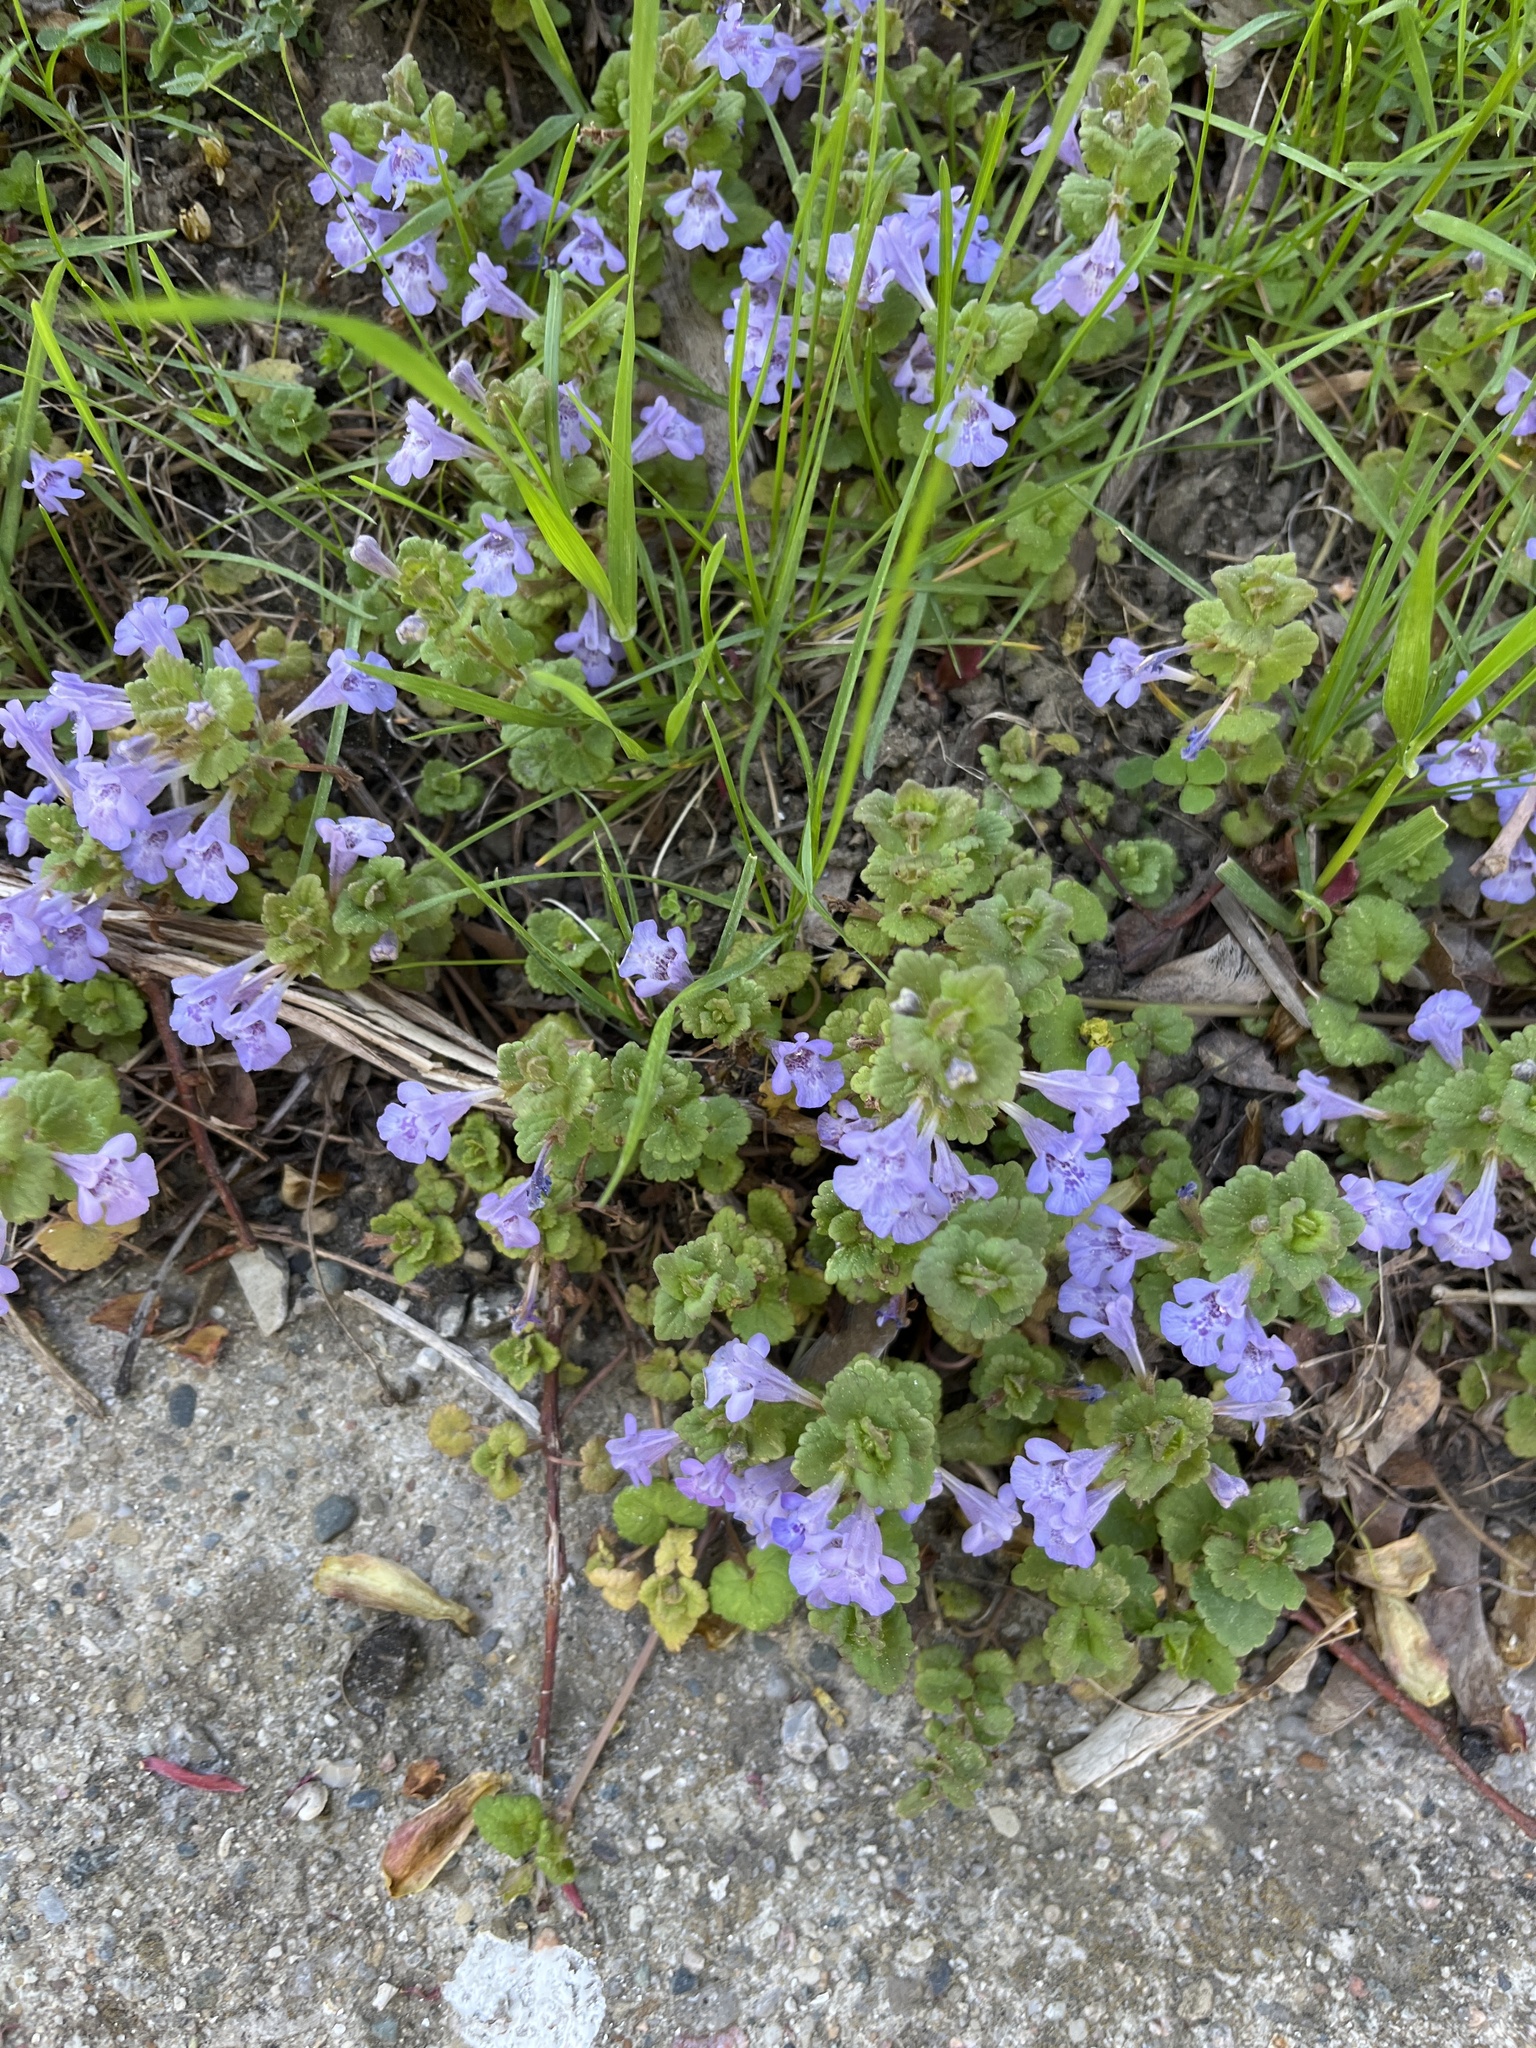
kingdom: Plantae
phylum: Tracheophyta
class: Magnoliopsida
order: Lamiales
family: Lamiaceae
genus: Glechoma
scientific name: Glechoma hederacea
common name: Ground ivy
